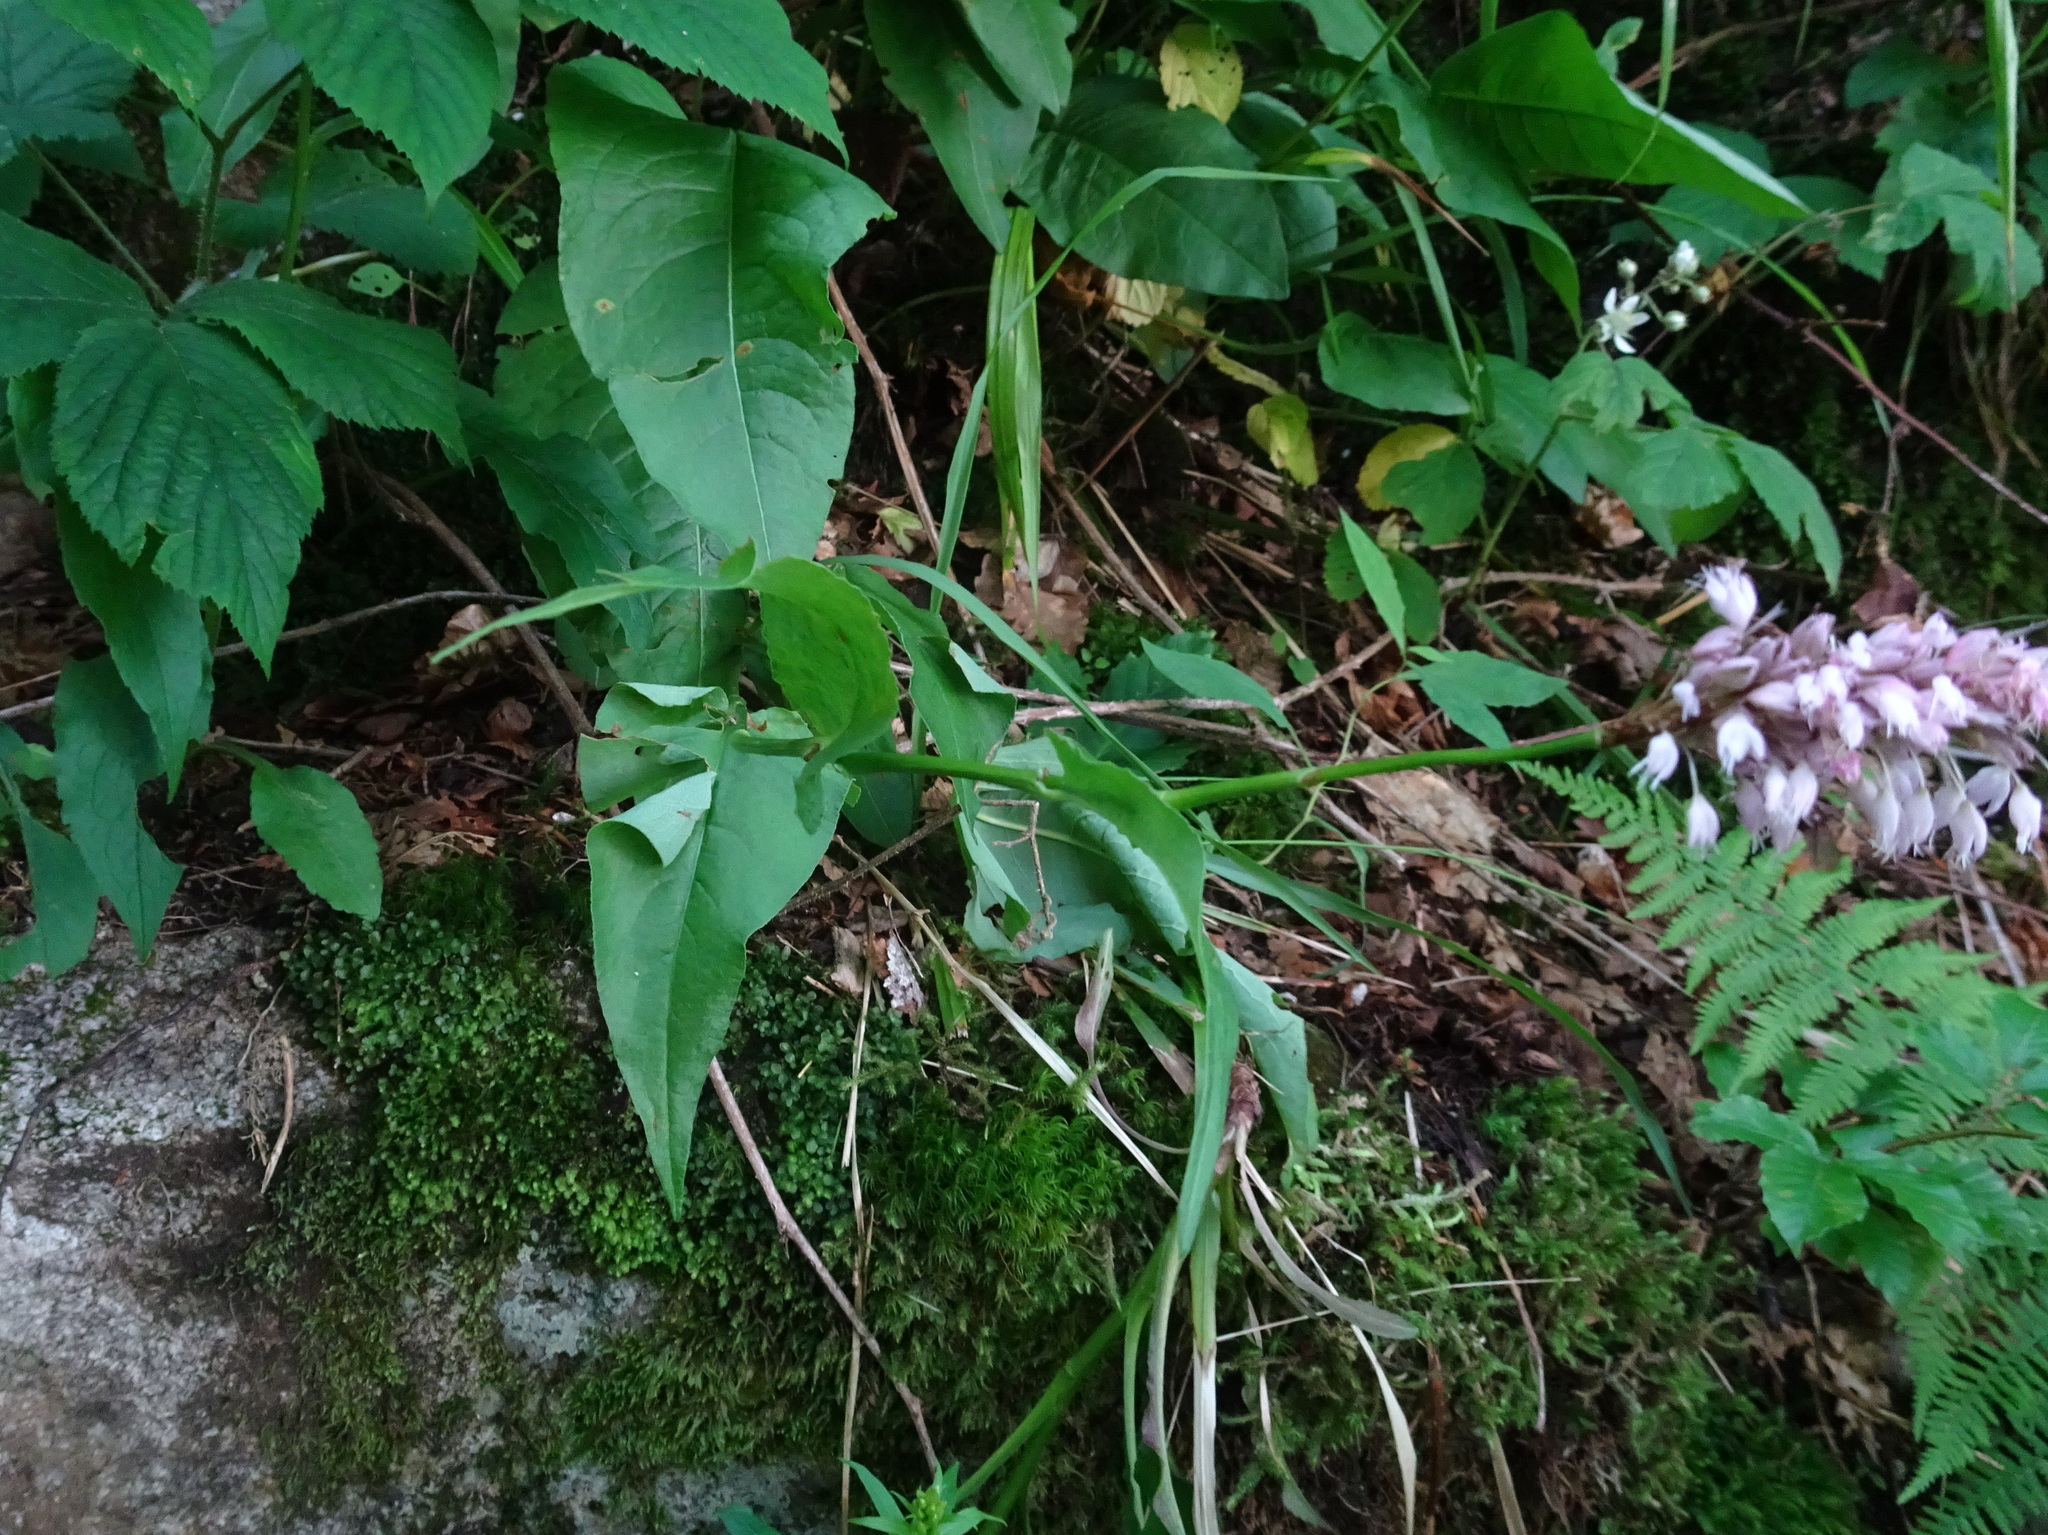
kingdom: Plantae
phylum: Tracheophyta
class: Magnoliopsida
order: Caryophyllales
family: Polygonaceae
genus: Bistorta
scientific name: Bistorta officinalis
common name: Common bistort
